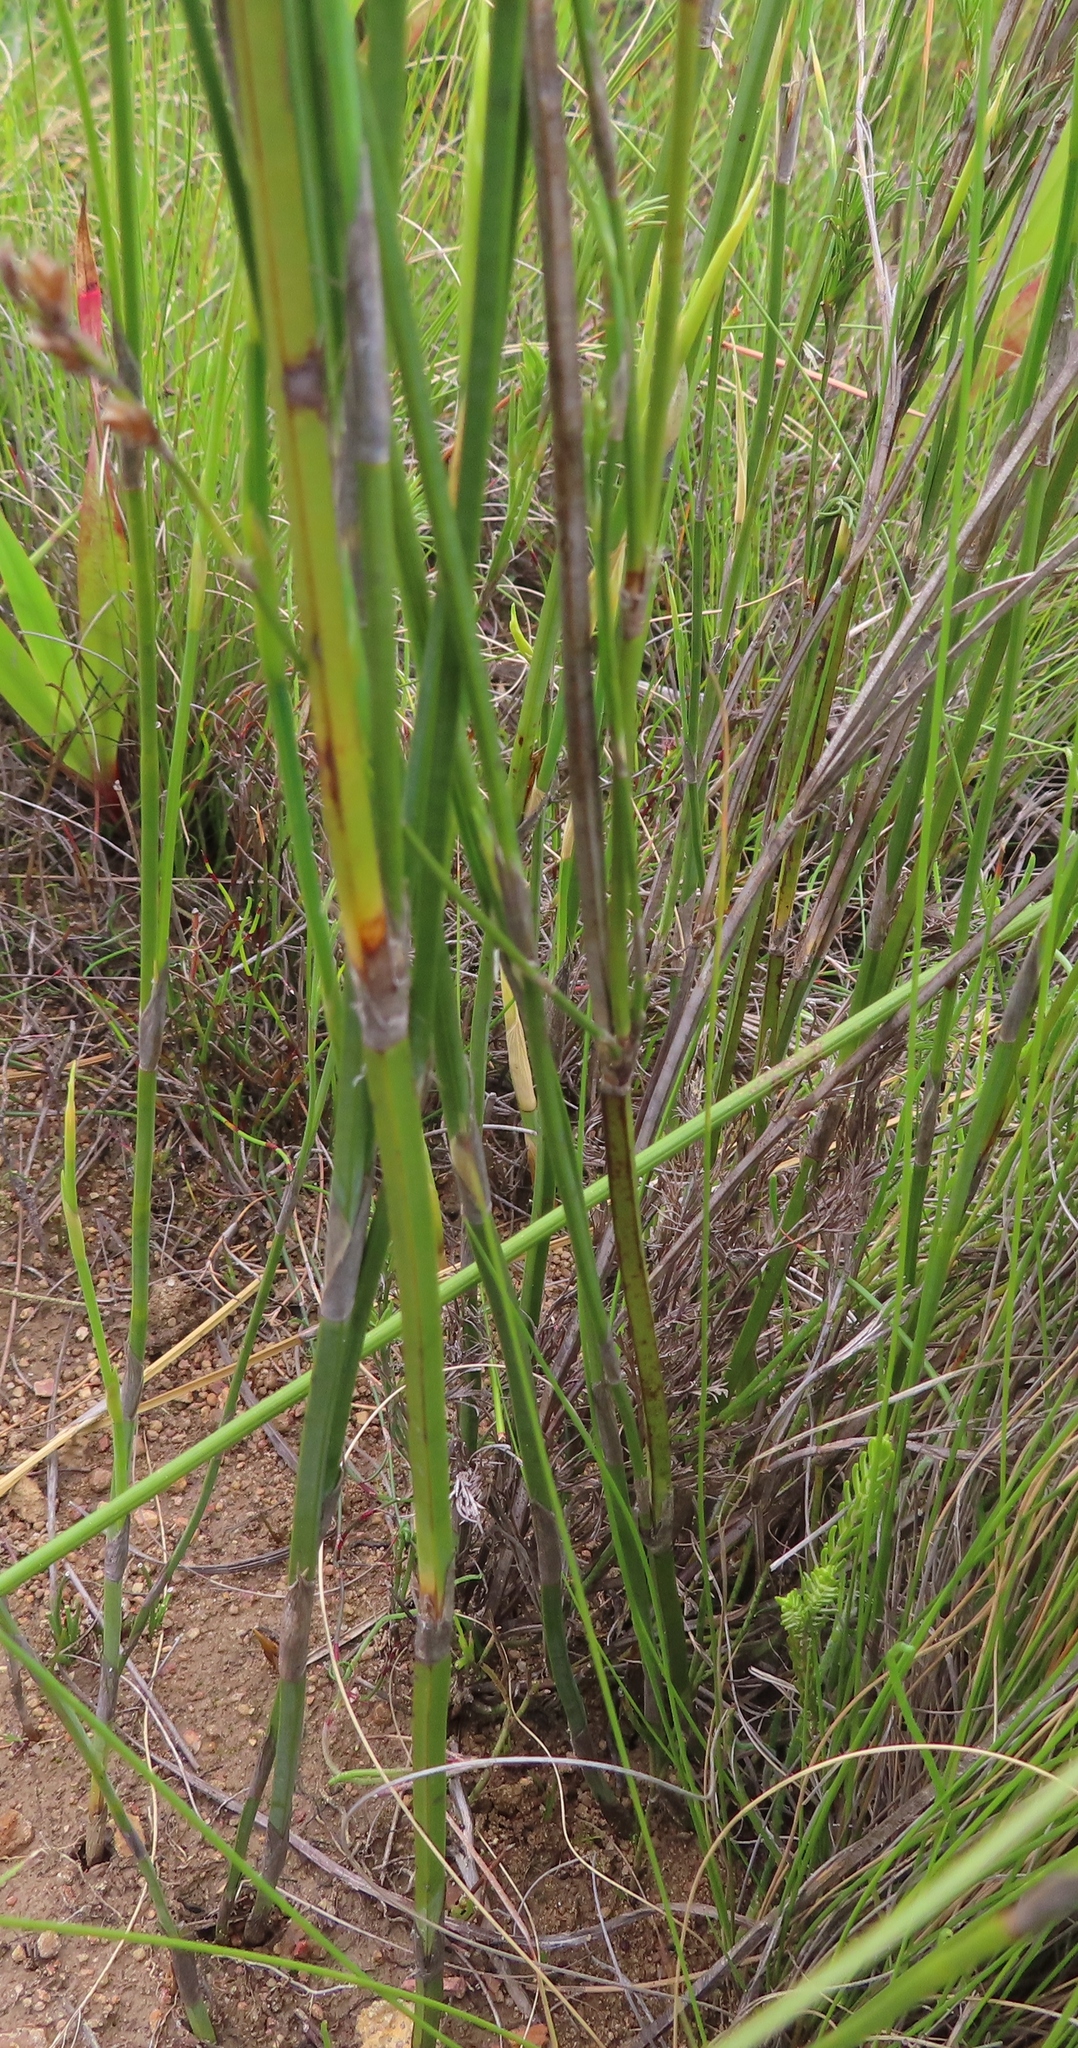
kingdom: Plantae
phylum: Tracheophyta
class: Liliopsida
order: Poales
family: Restionaceae
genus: Restio
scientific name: Restio quadratus
